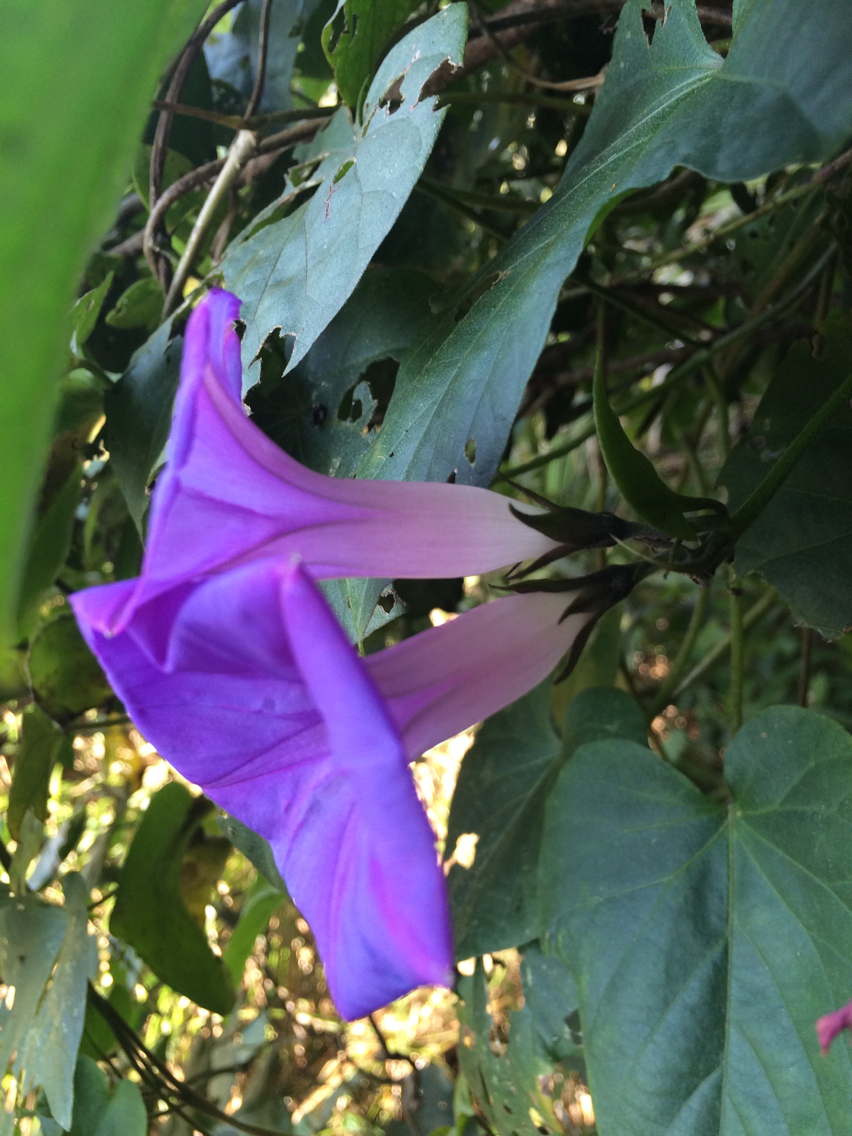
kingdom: Plantae
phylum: Tracheophyta
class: Magnoliopsida
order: Solanales
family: Convolvulaceae
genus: Ipomoea
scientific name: Ipomoea indica
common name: Blue dawnflower
